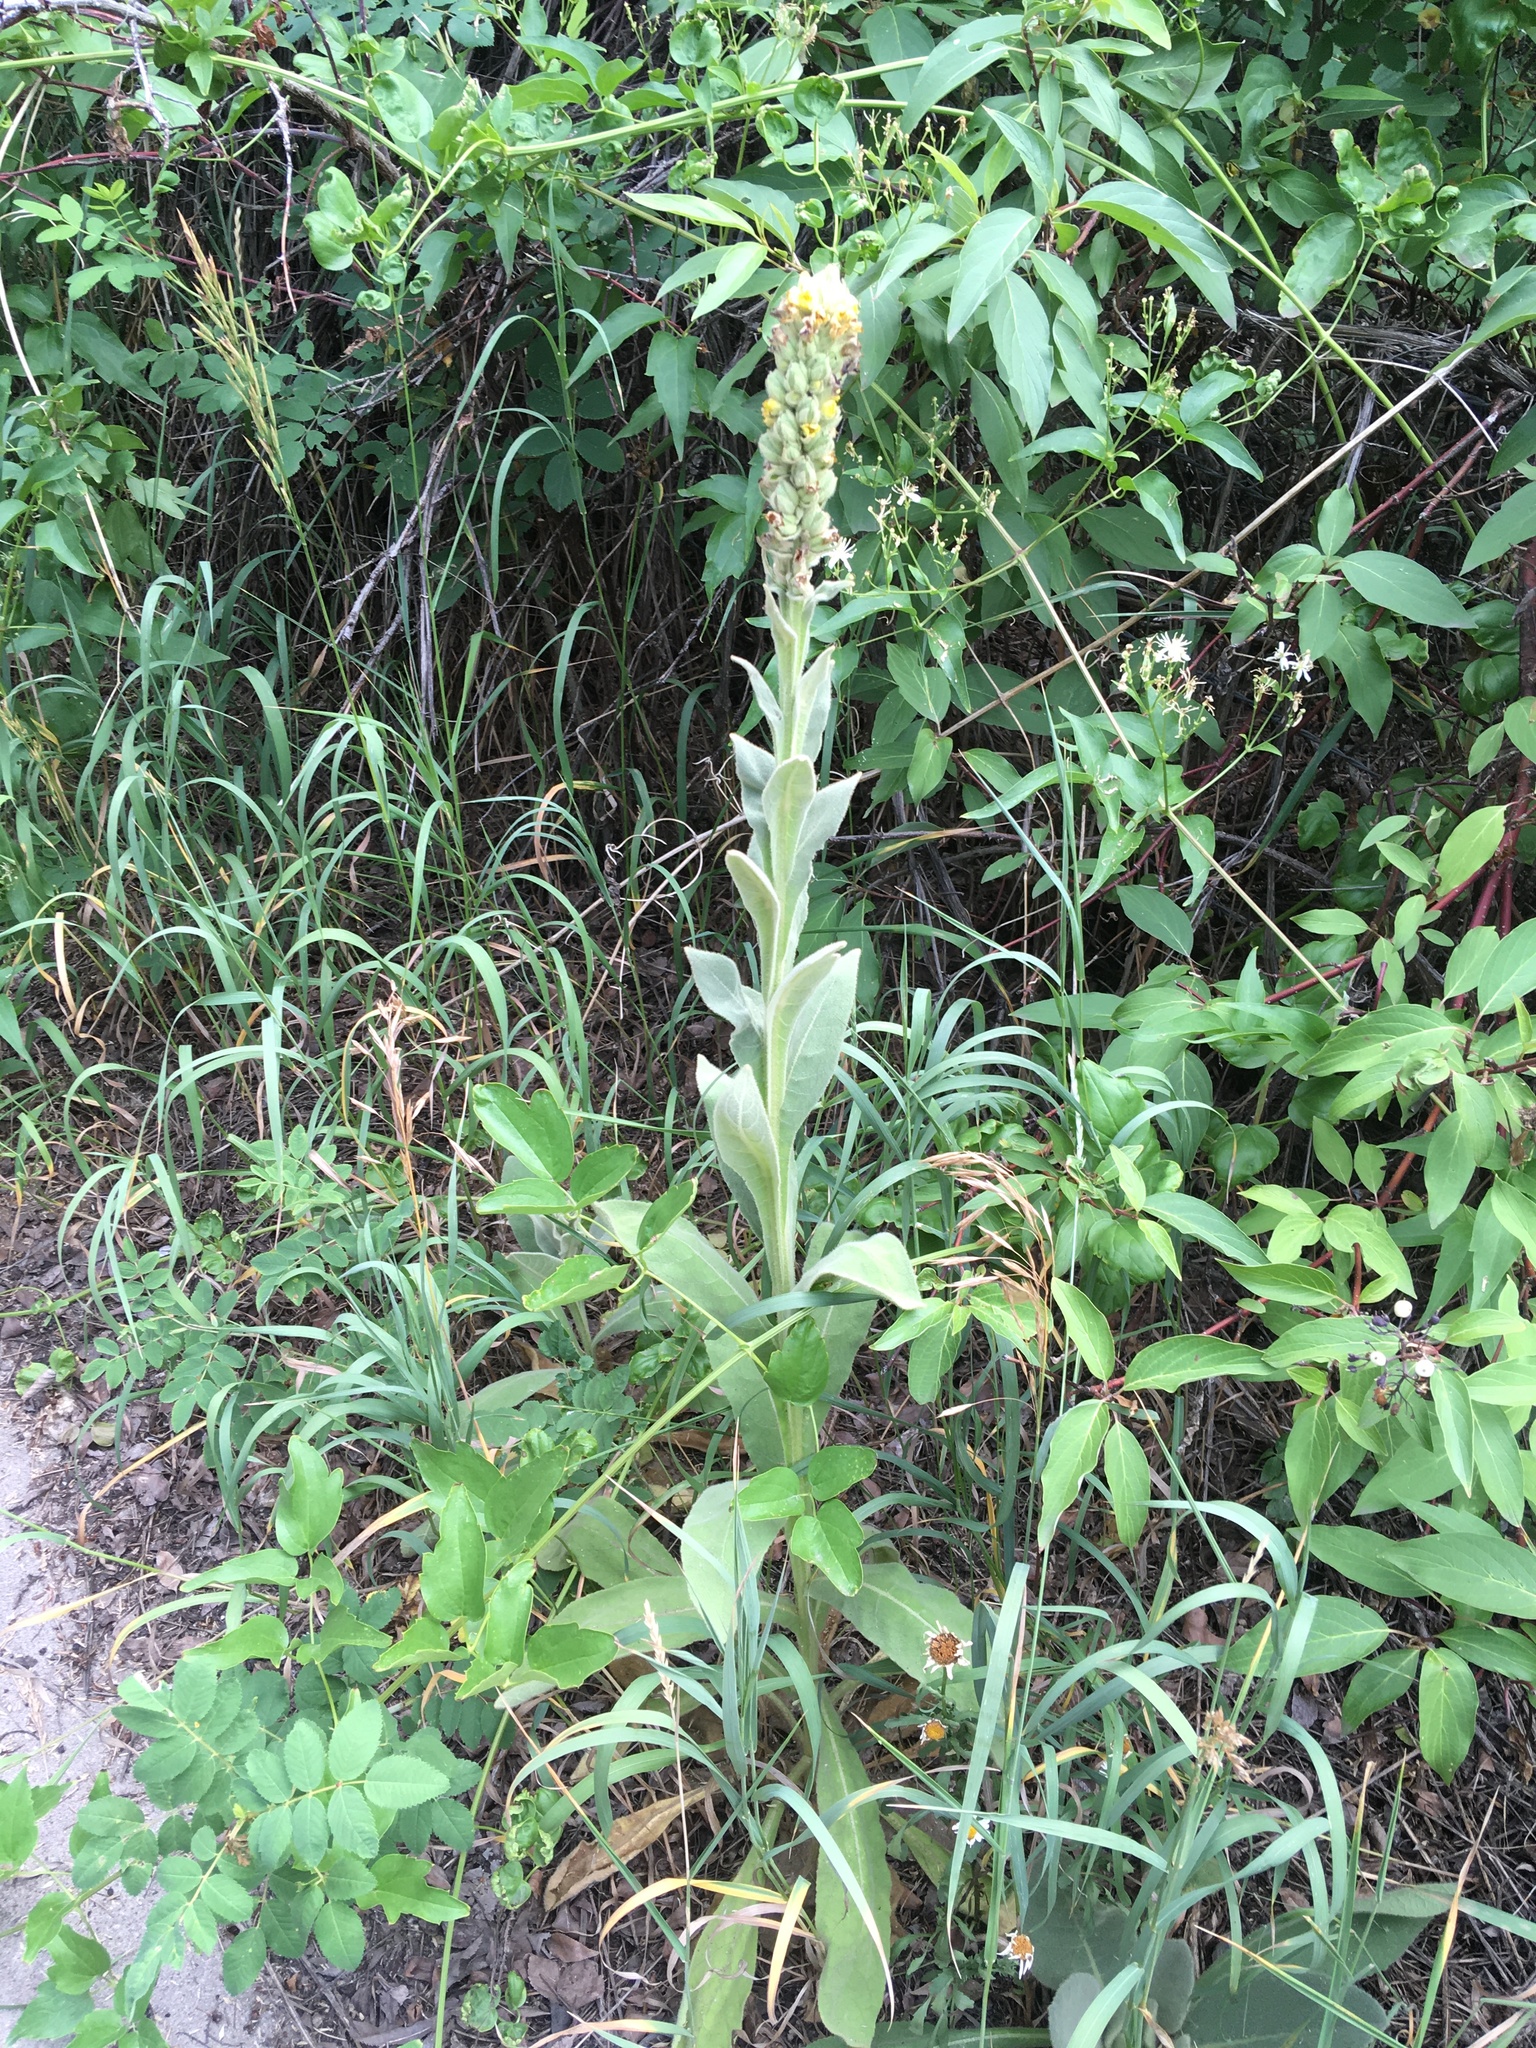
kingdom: Plantae
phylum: Tracheophyta
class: Magnoliopsida
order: Lamiales
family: Scrophulariaceae
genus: Verbascum
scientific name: Verbascum thapsus
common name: Common mullein
